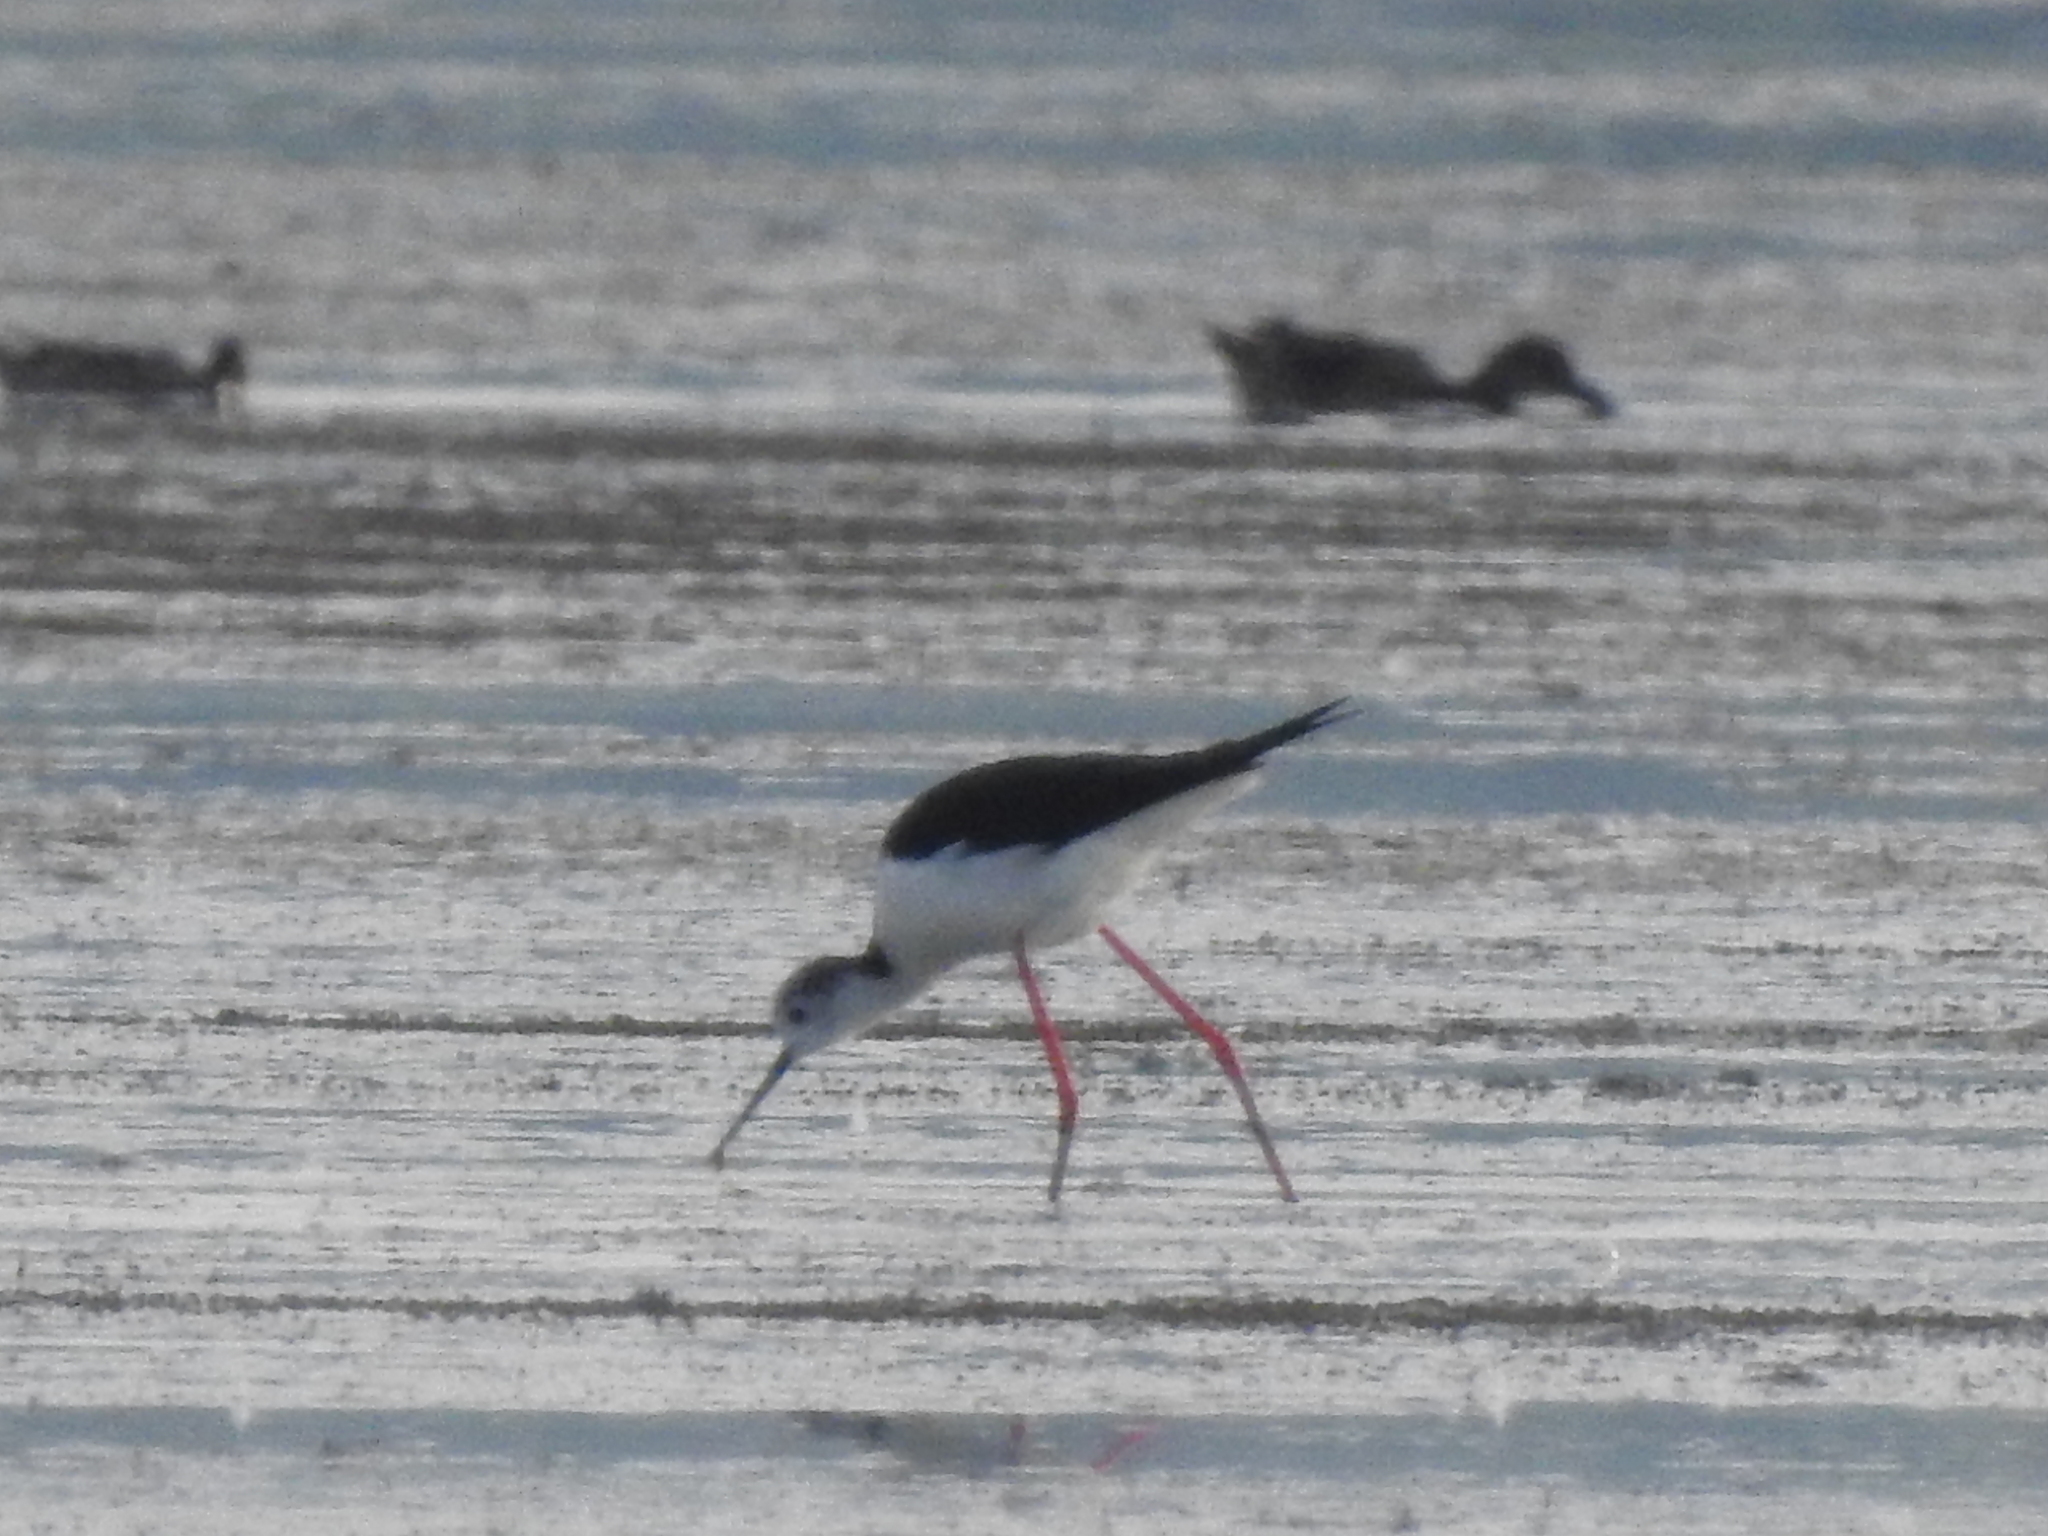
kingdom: Animalia
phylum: Chordata
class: Aves
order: Charadriiformes
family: Recurvirostridae
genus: Himantopus
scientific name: Himantopus himantopus
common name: Black-winged stilt
